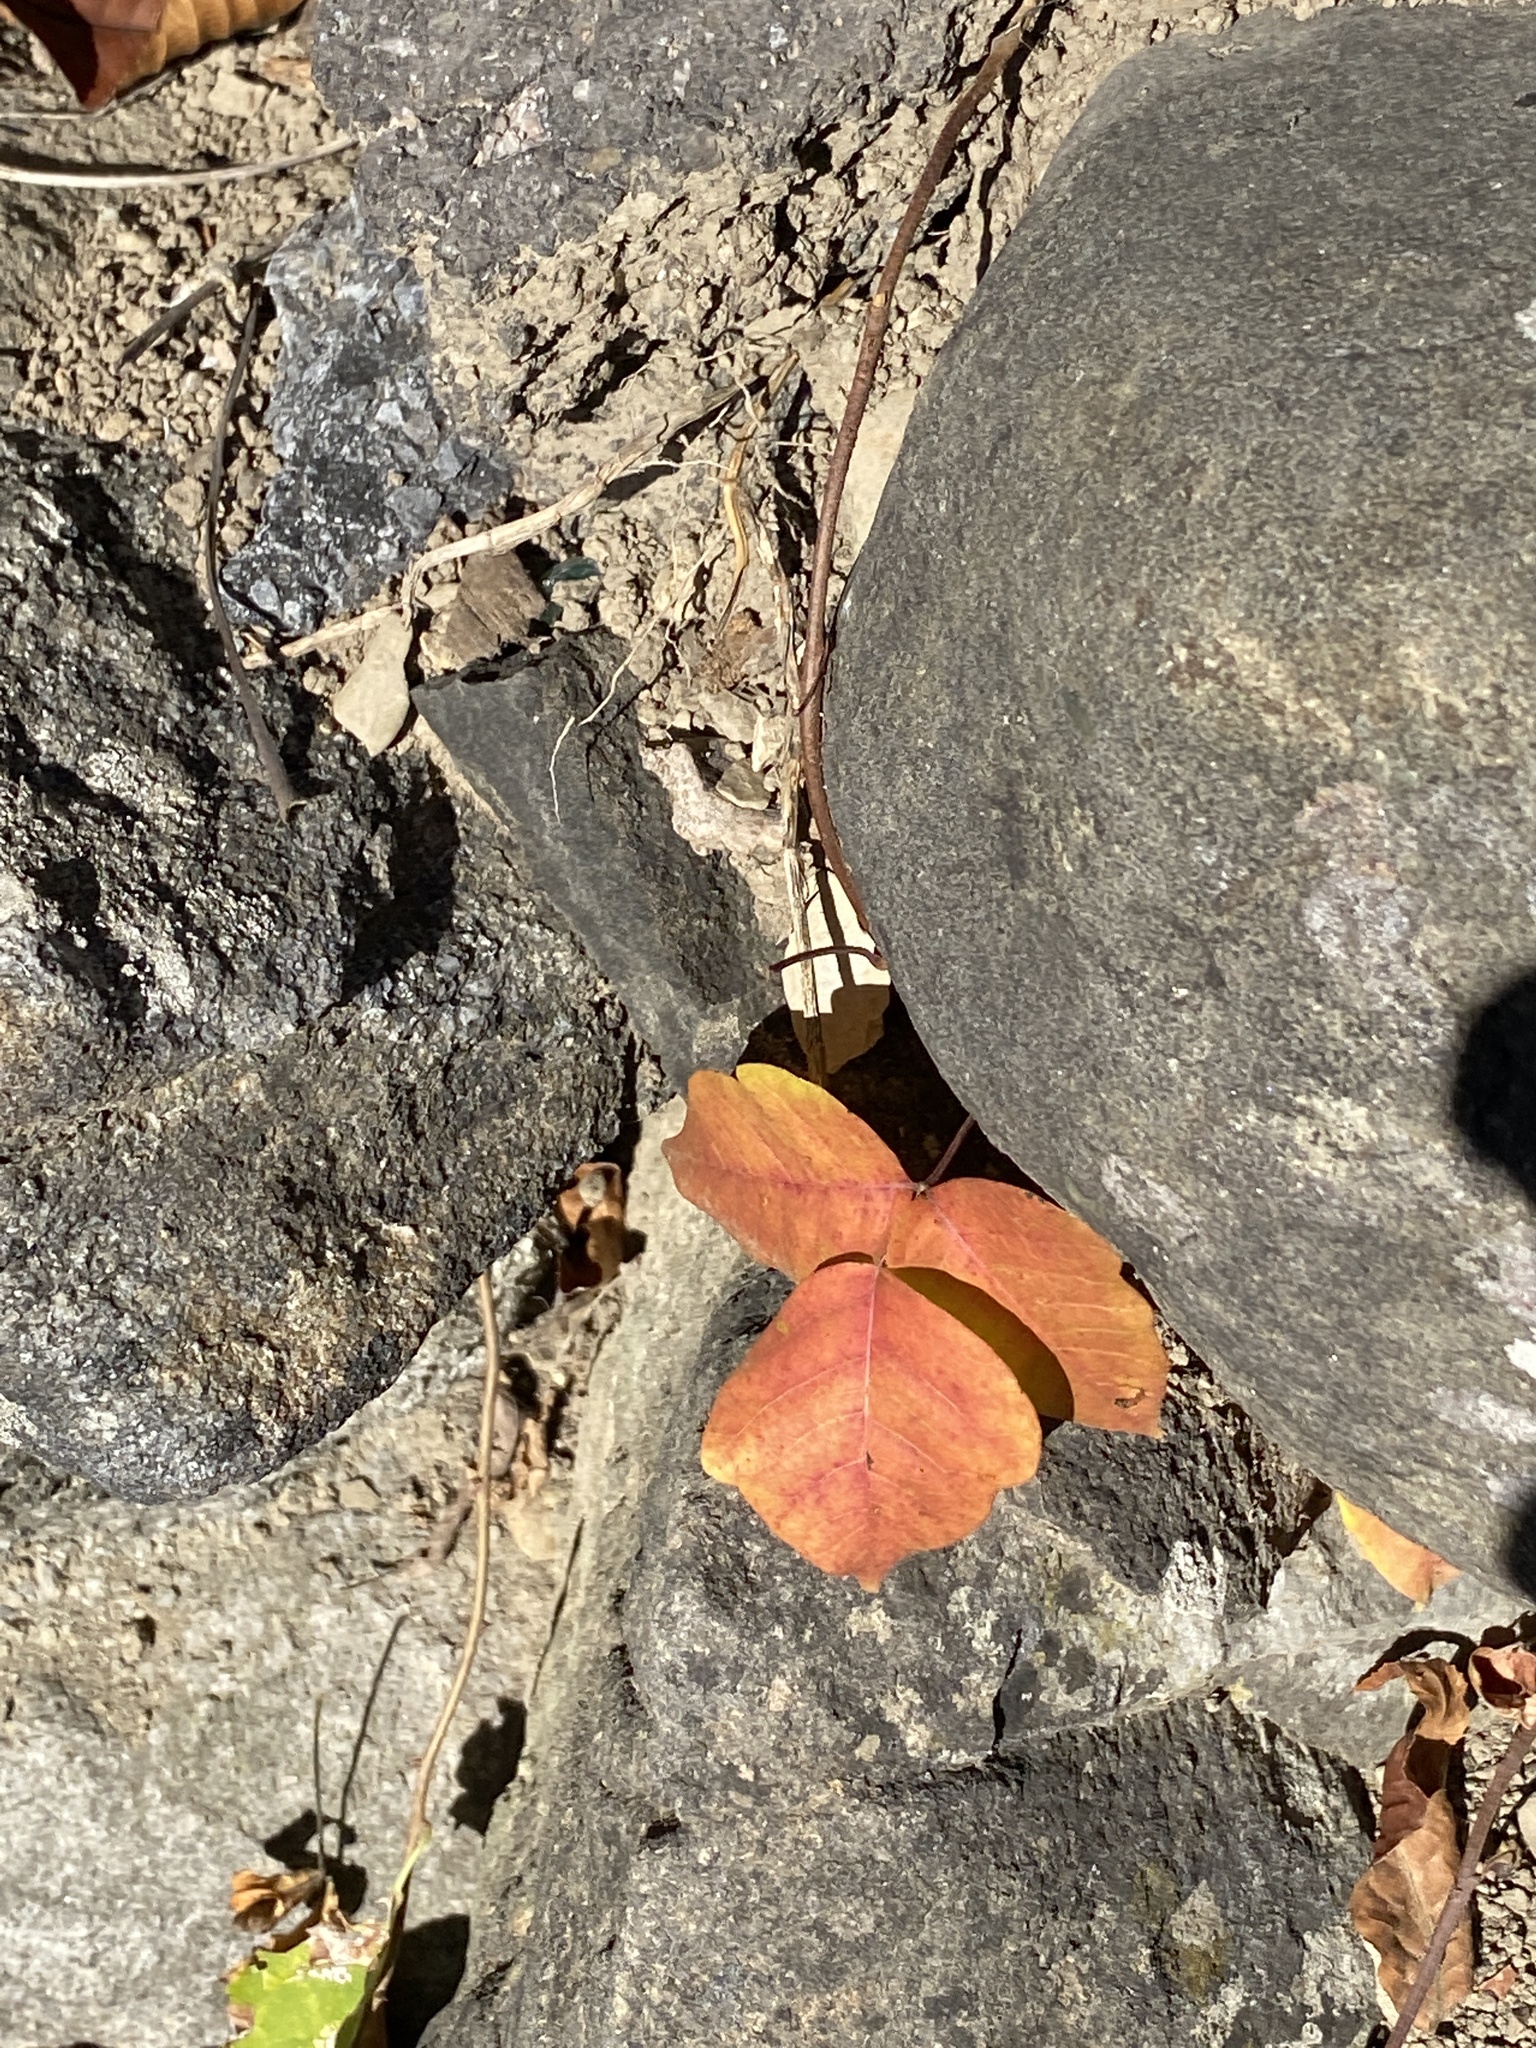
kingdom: Plantae
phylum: Tracheophyta
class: Magnoliopsida
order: Sapindales
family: Anacardiaceae
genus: Toxicodendron
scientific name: Toxicodendron radicans
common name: Poison ivy
